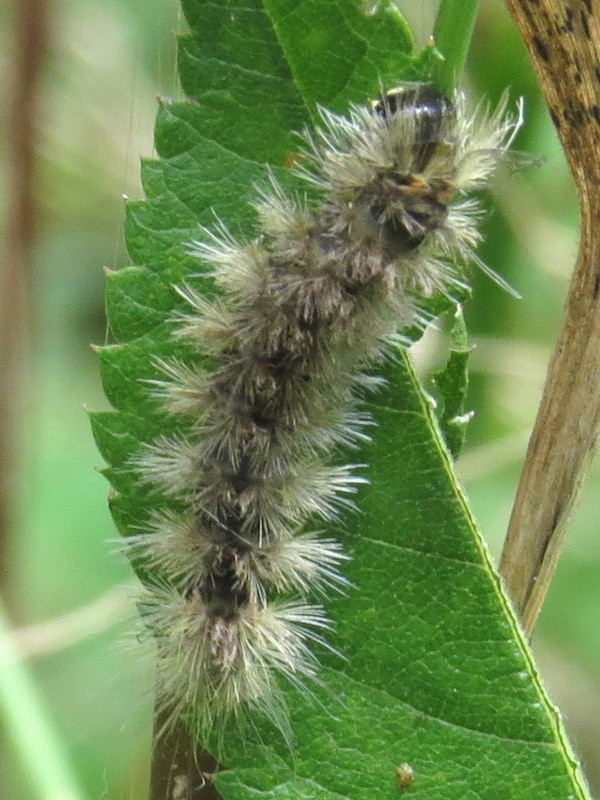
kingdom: Animalia
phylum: Arthropoda
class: Insecta
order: Lepidoptera
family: Erebidae
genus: Halysidota
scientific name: Halysidota tessellaris
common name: Banded tussock moth
